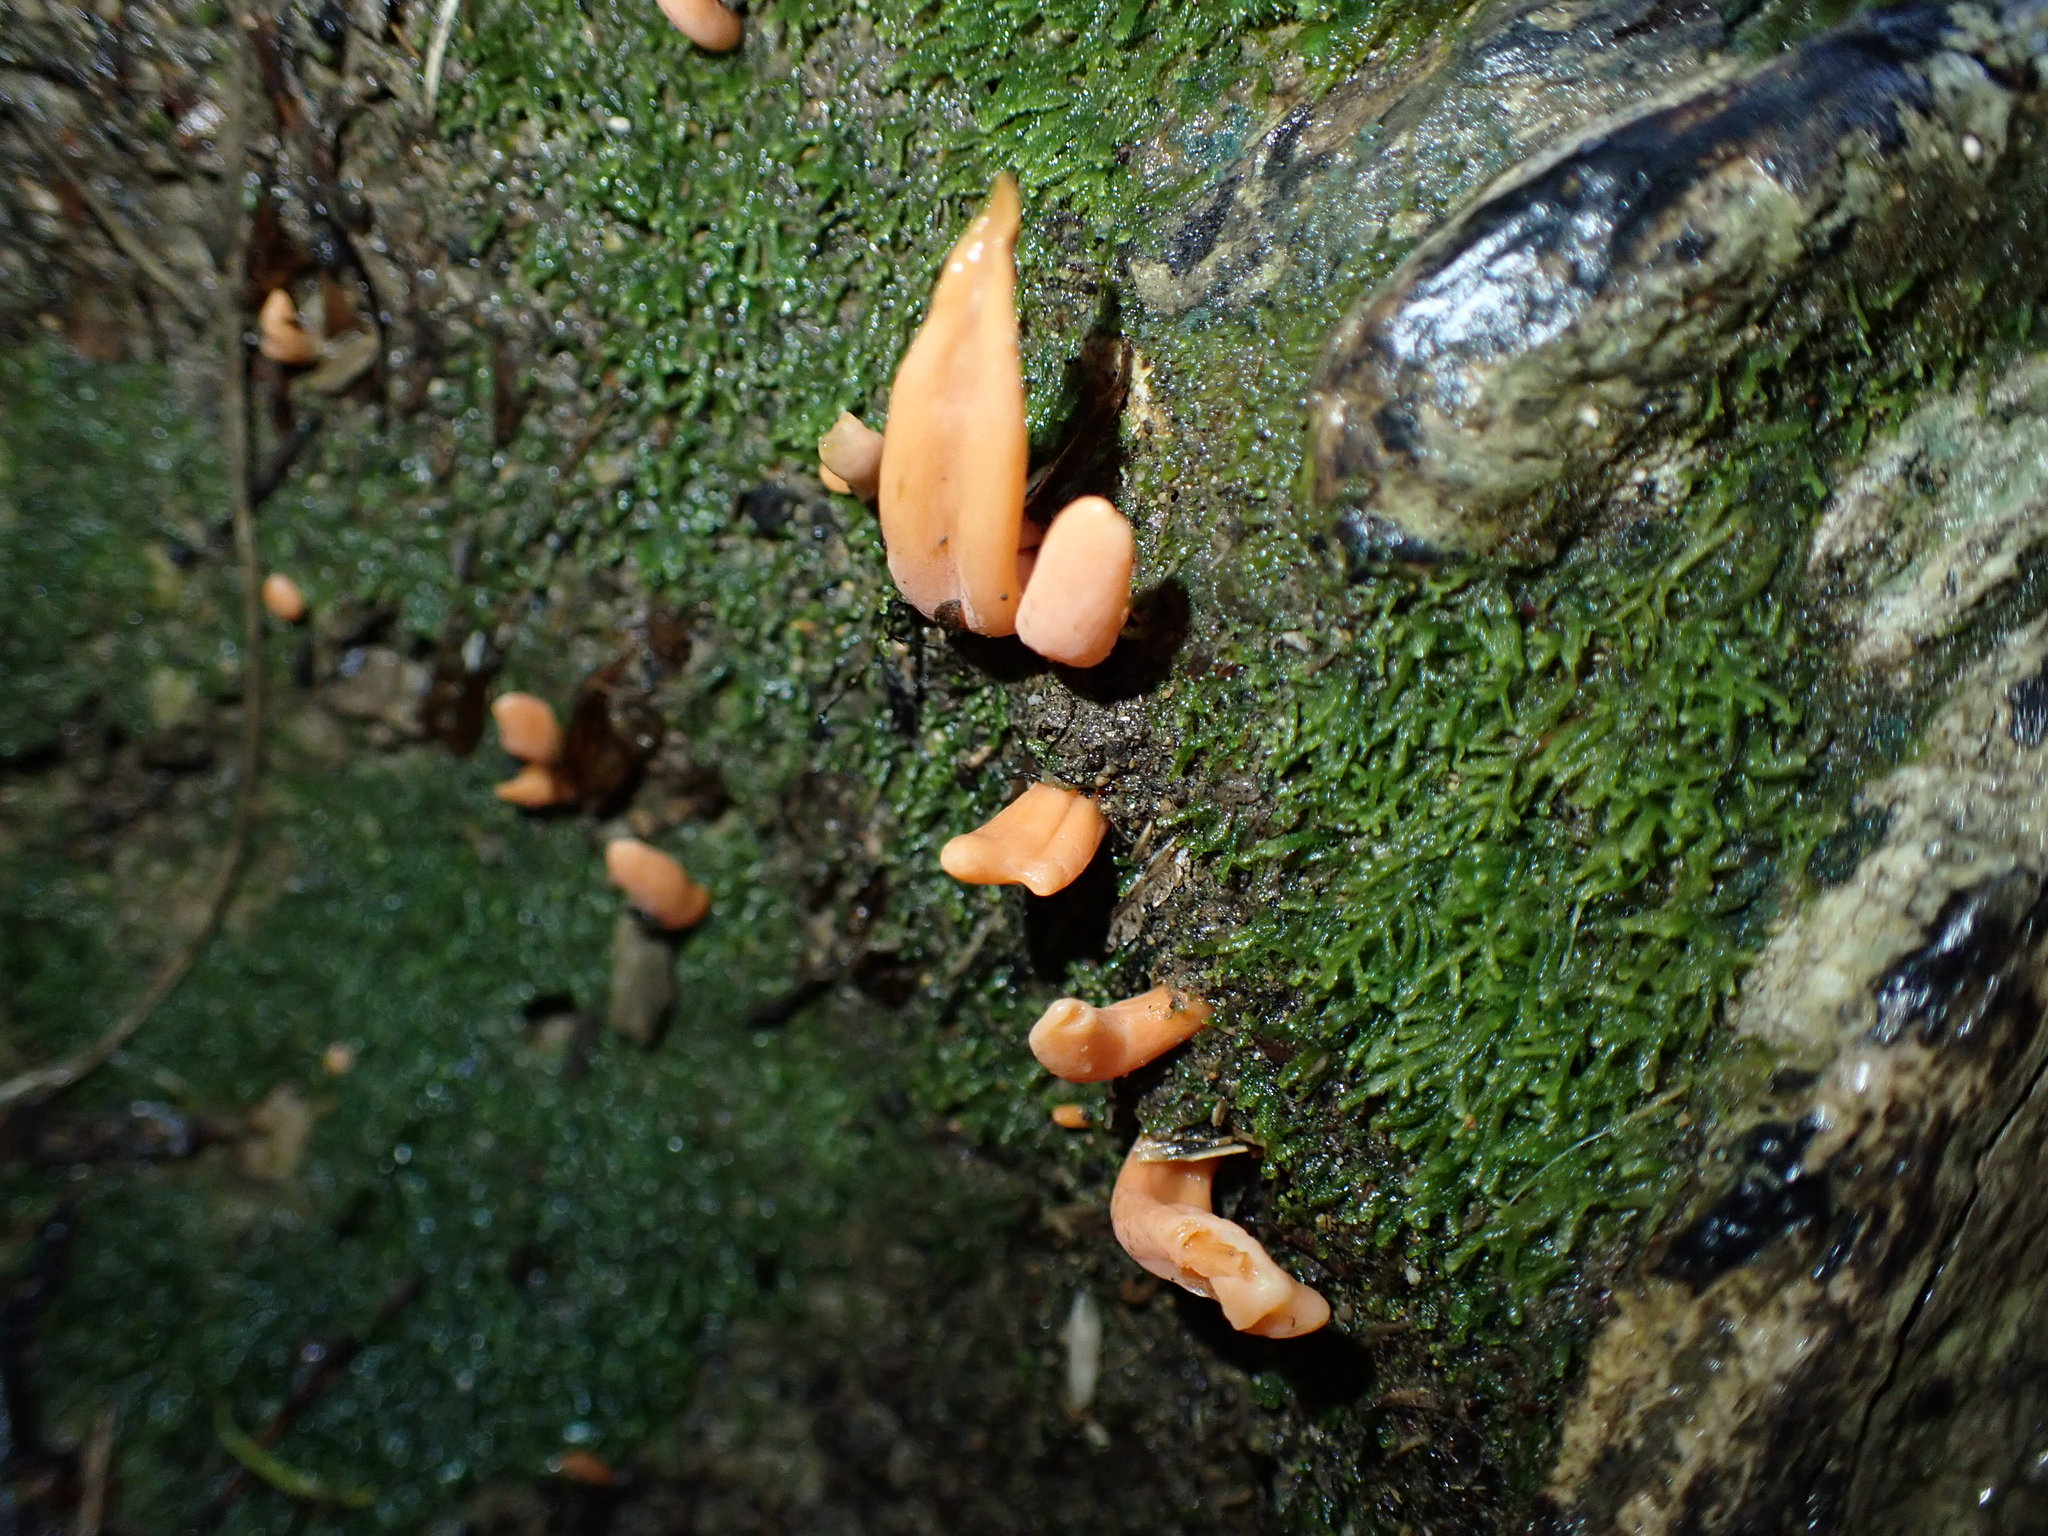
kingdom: Fungi
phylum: Basidiomycota
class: Agaricomycetes
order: Agaricales
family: Clavariaceae
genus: Clavulinopsis
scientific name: Clavulinopsis sulcata
